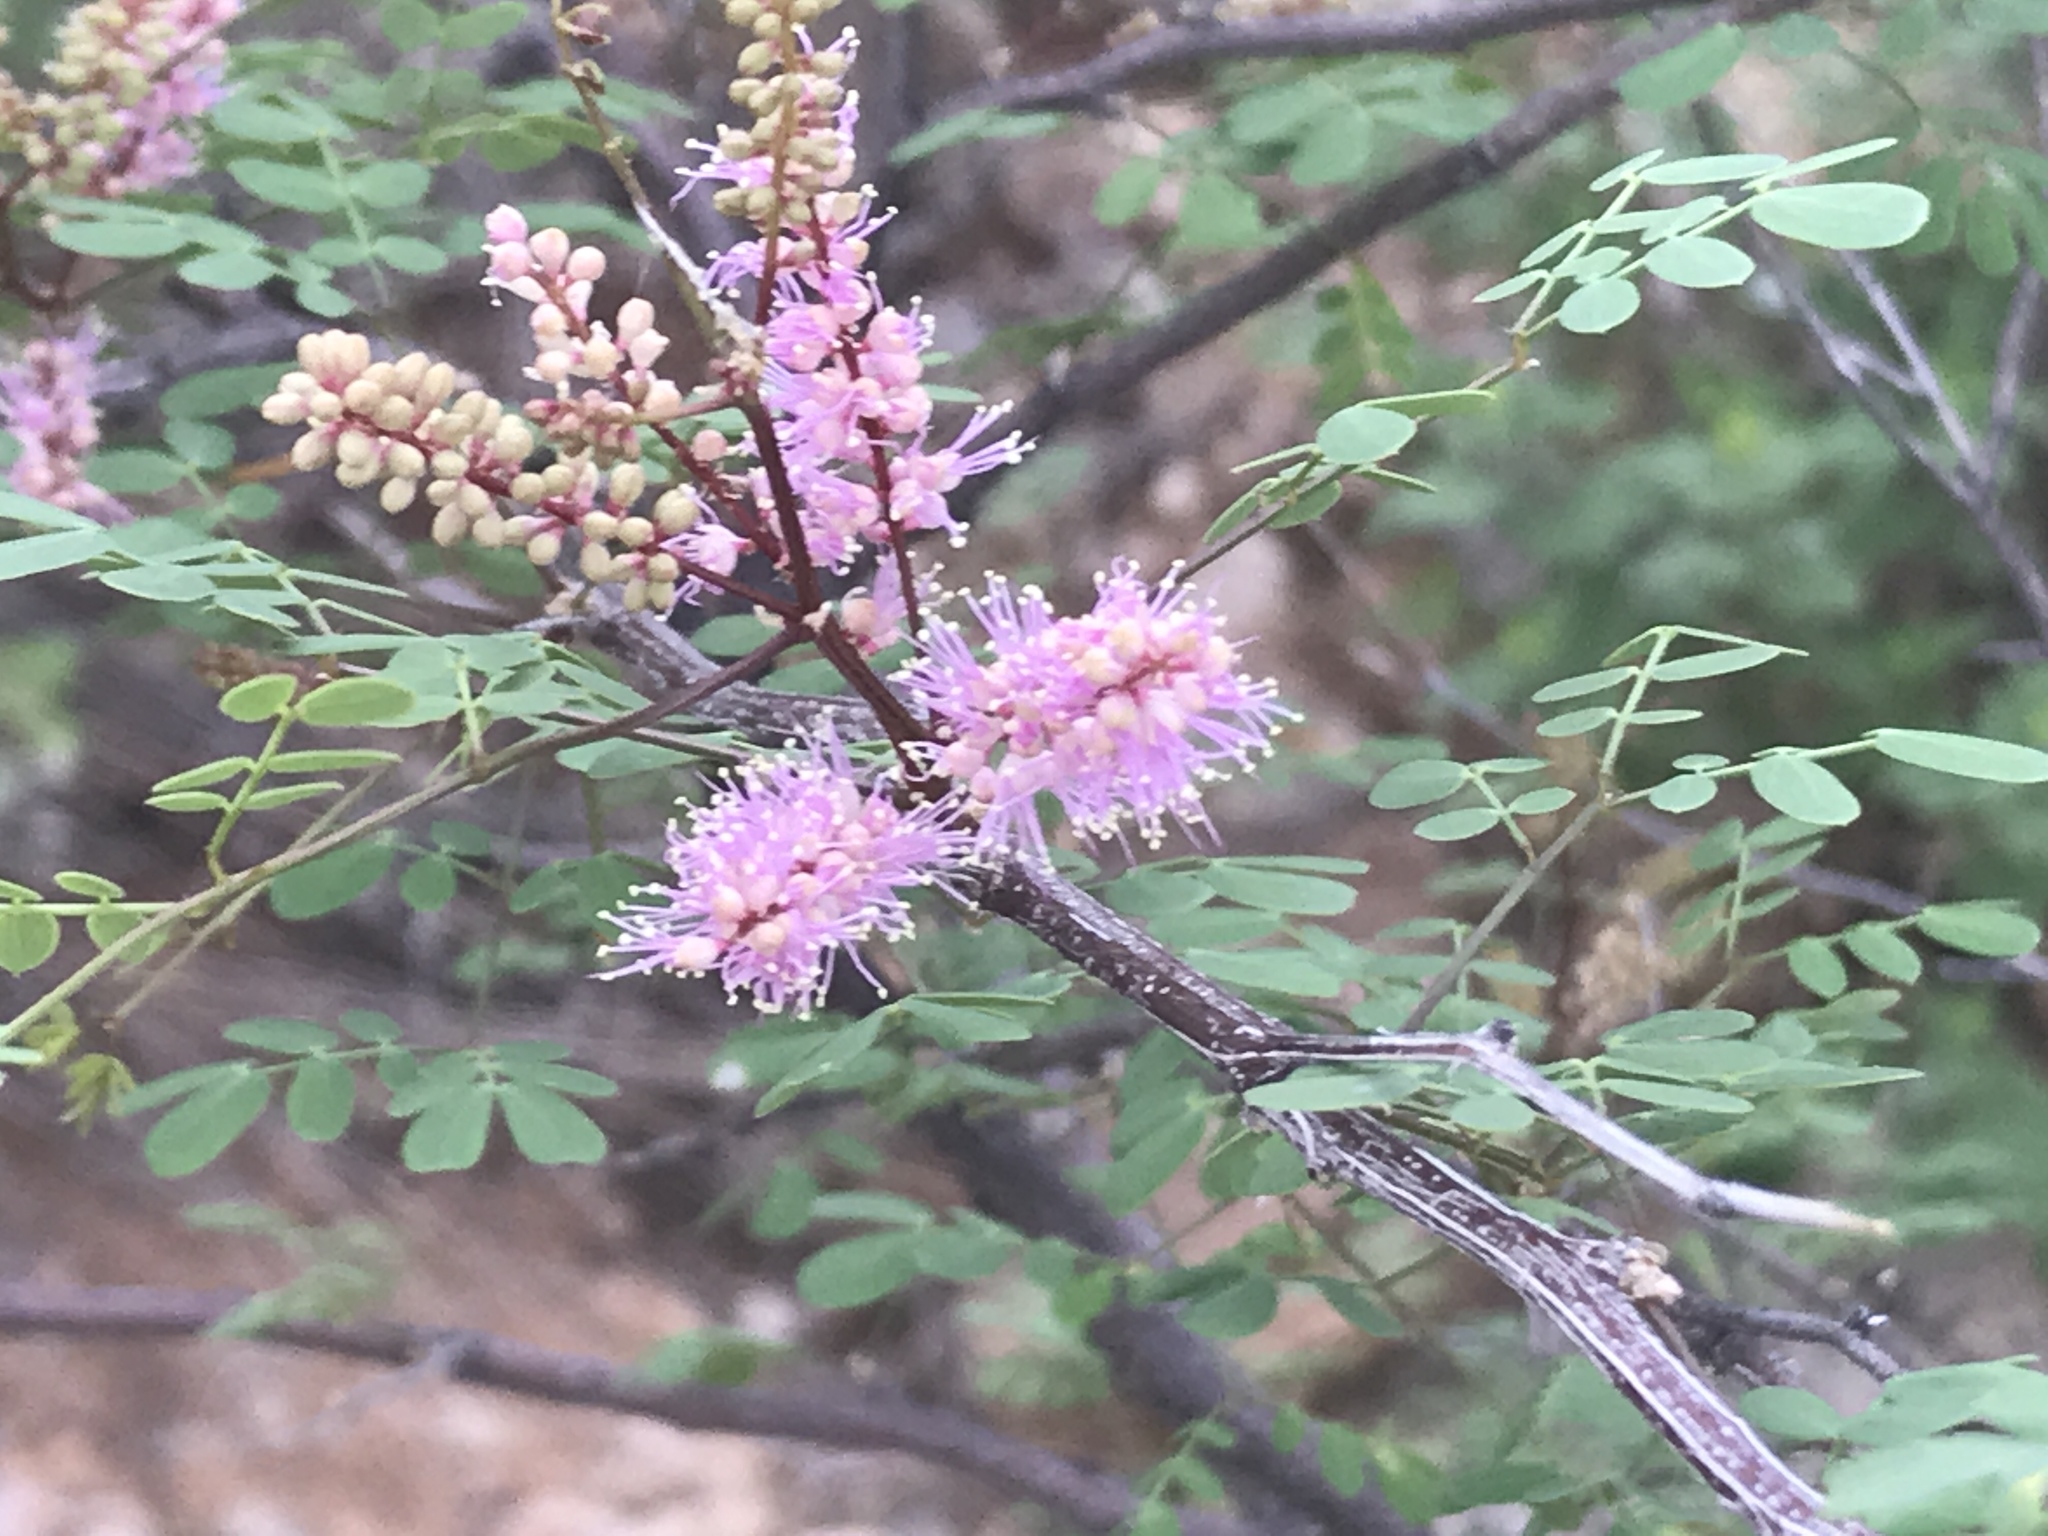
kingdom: Plantae
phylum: Tracheophyta
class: Magnoliopsida
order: Fabales
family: Fabaceae
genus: Mimosa
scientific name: Mimosa distachya
